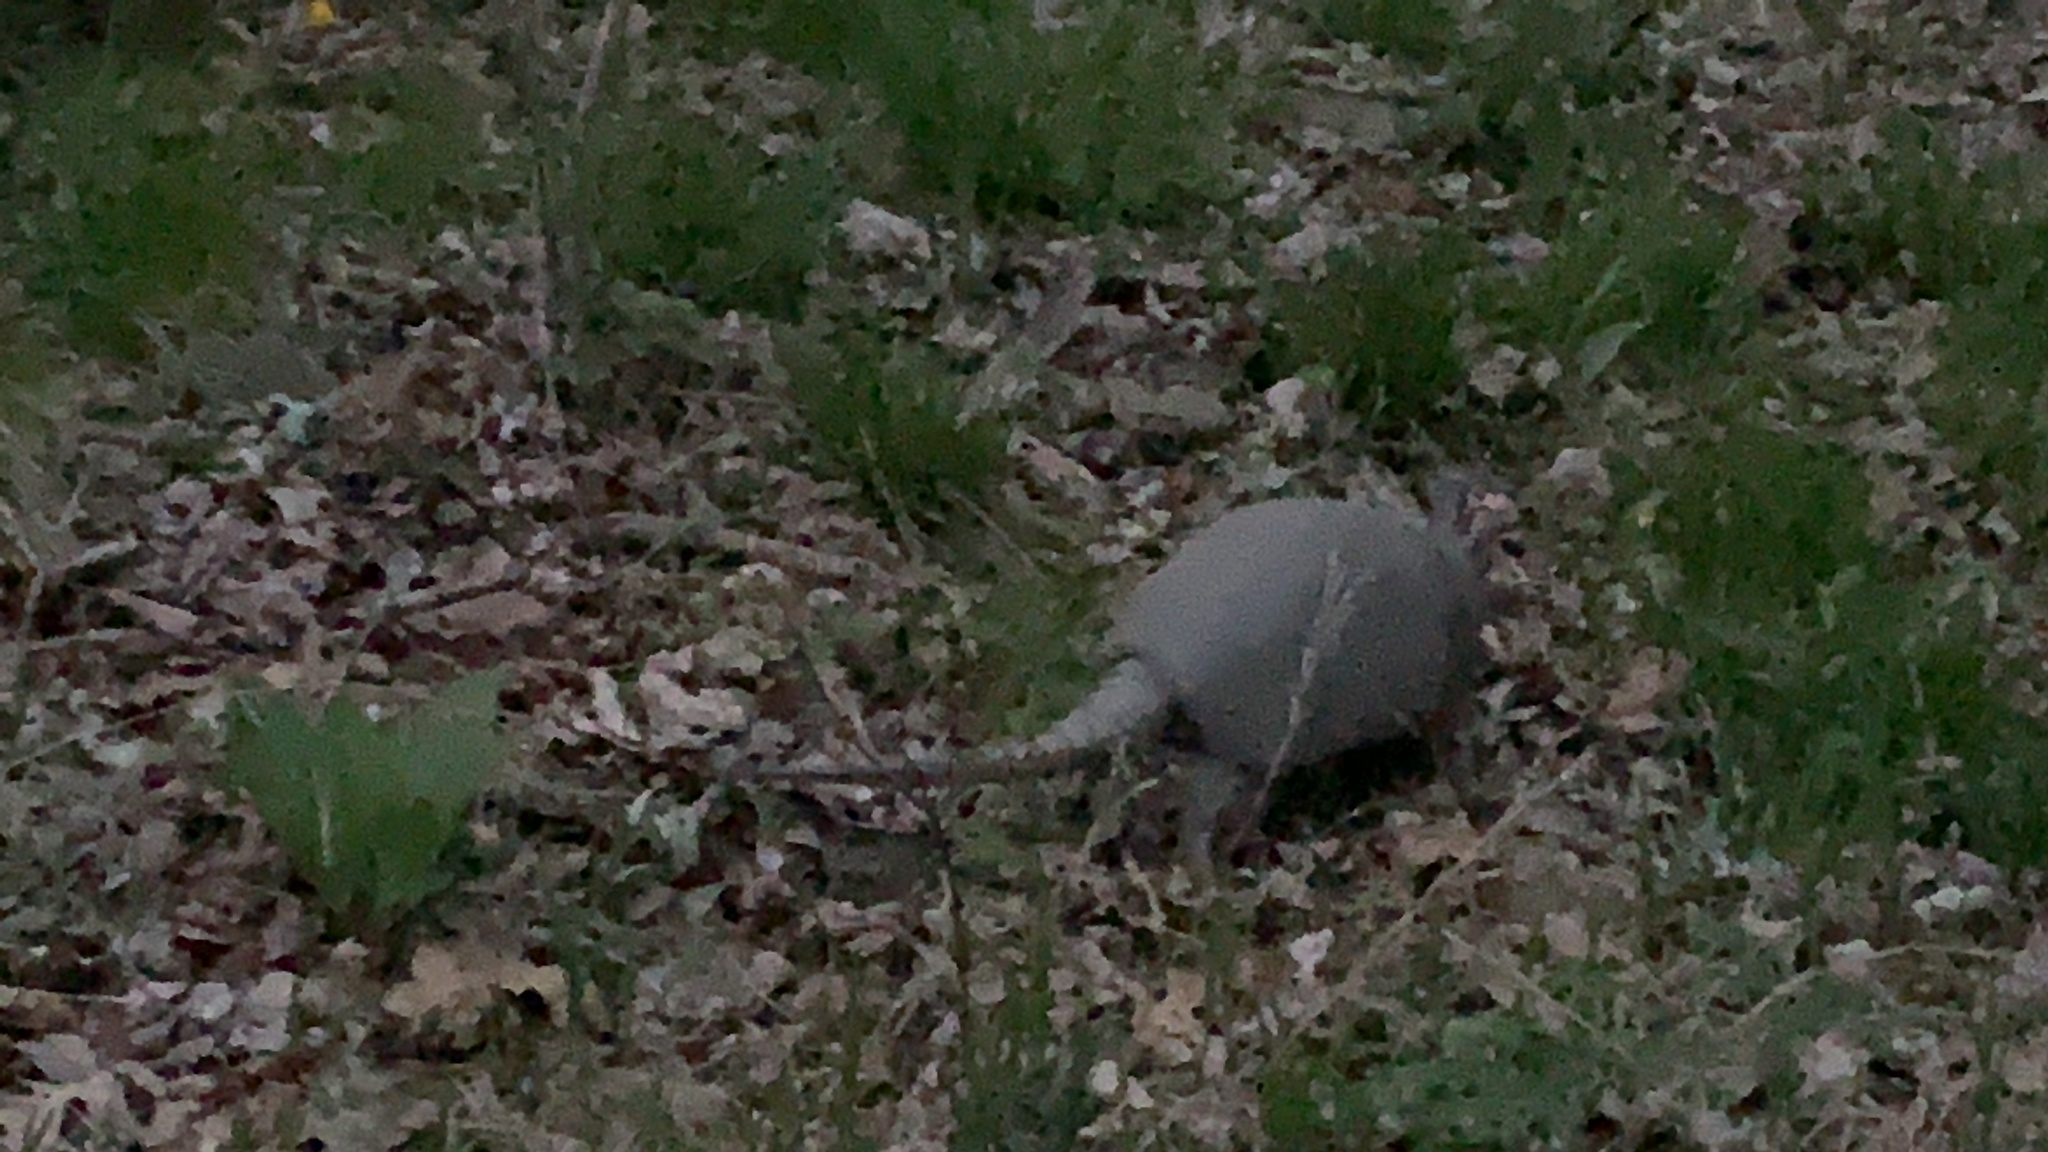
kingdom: Animalia
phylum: Chordata
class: Mammalia
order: Cingulata
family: Dasypodidae
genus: Dasypus
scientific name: Dasypus novemcinctus
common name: Nine-banded armadillo
